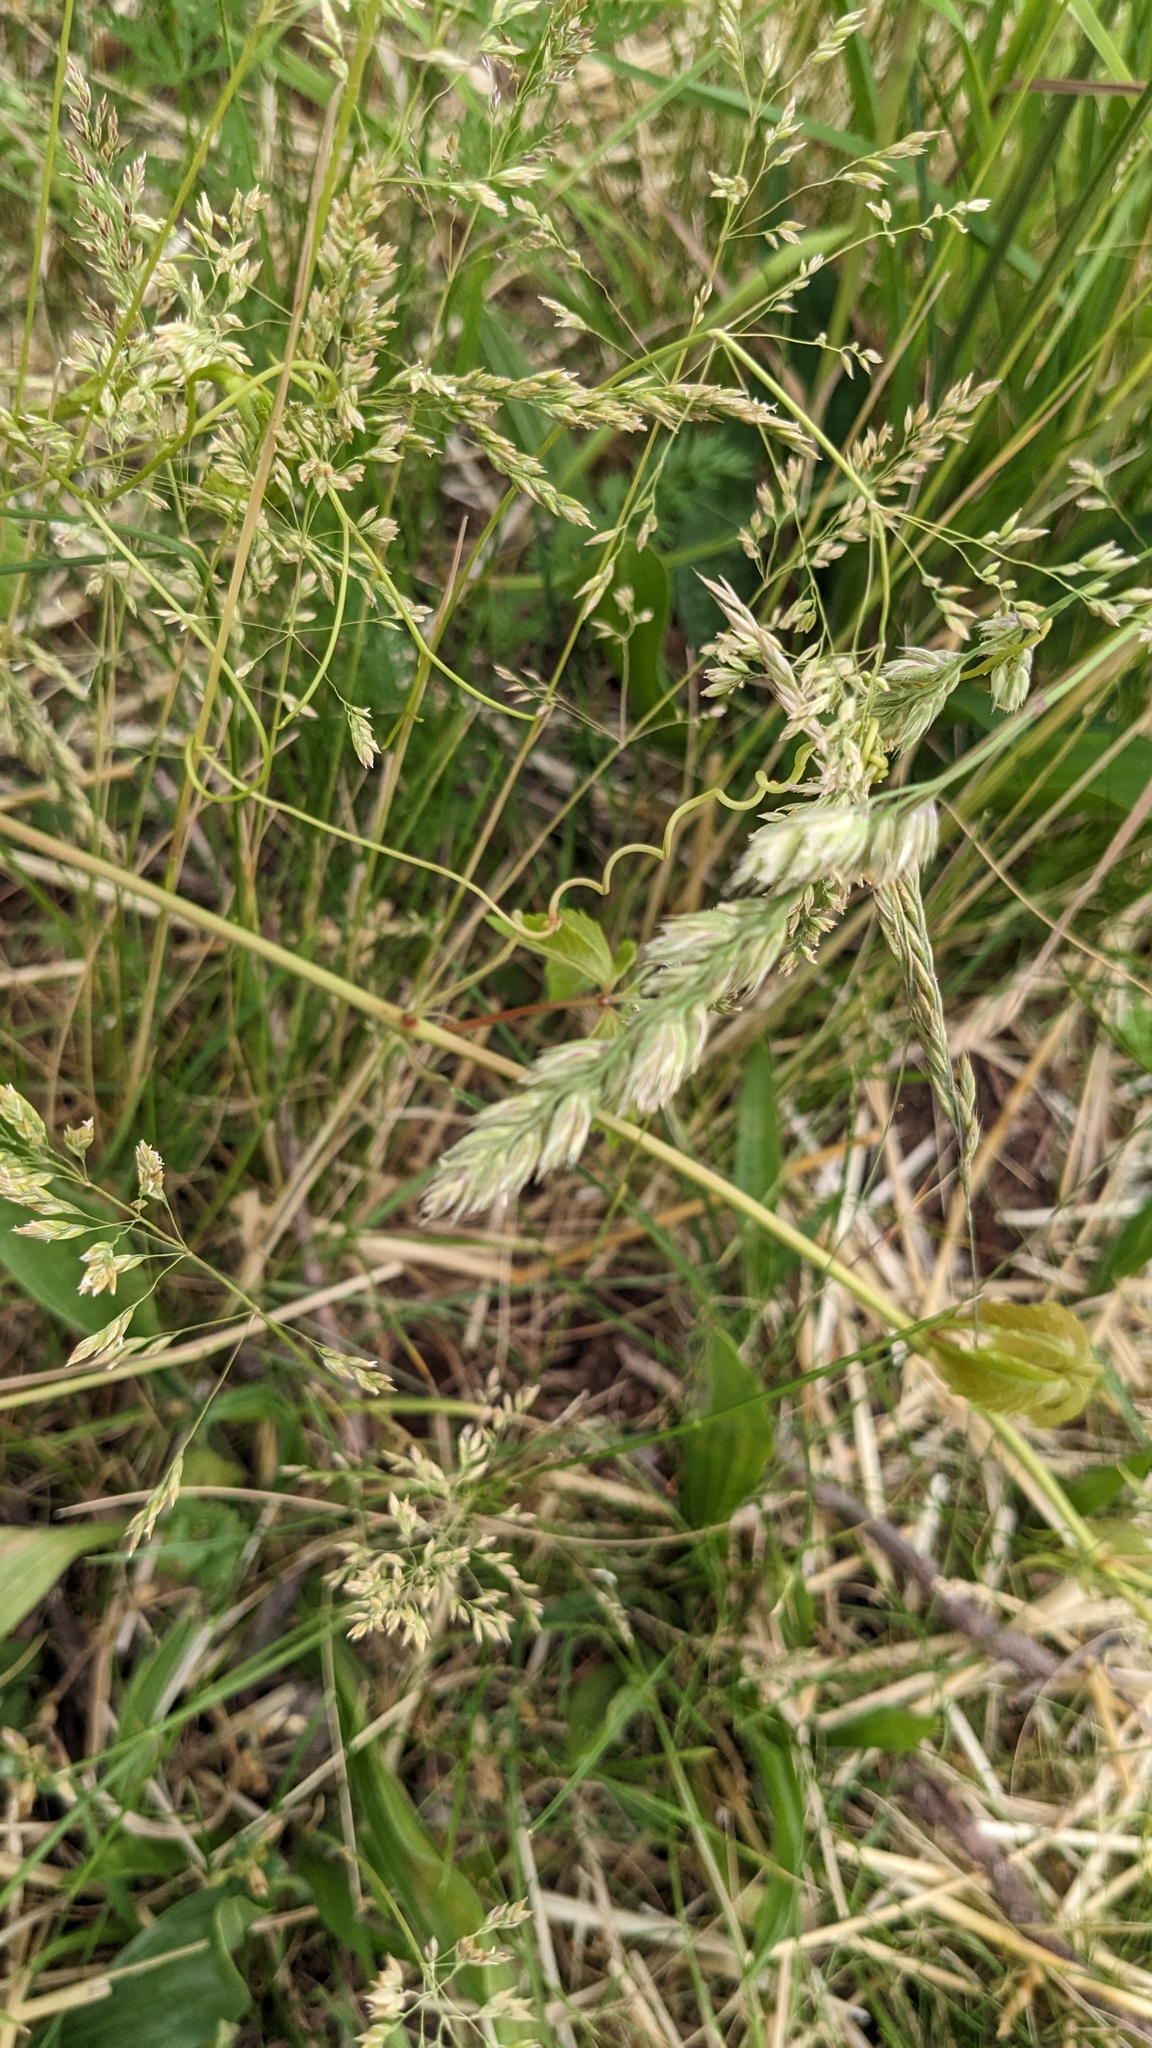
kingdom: Plantae
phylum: Tracheophyta
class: Liliopsida
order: Poales
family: Poaceae
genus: Dactylis
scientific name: Dactylis glomerata
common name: Orchardgrass
